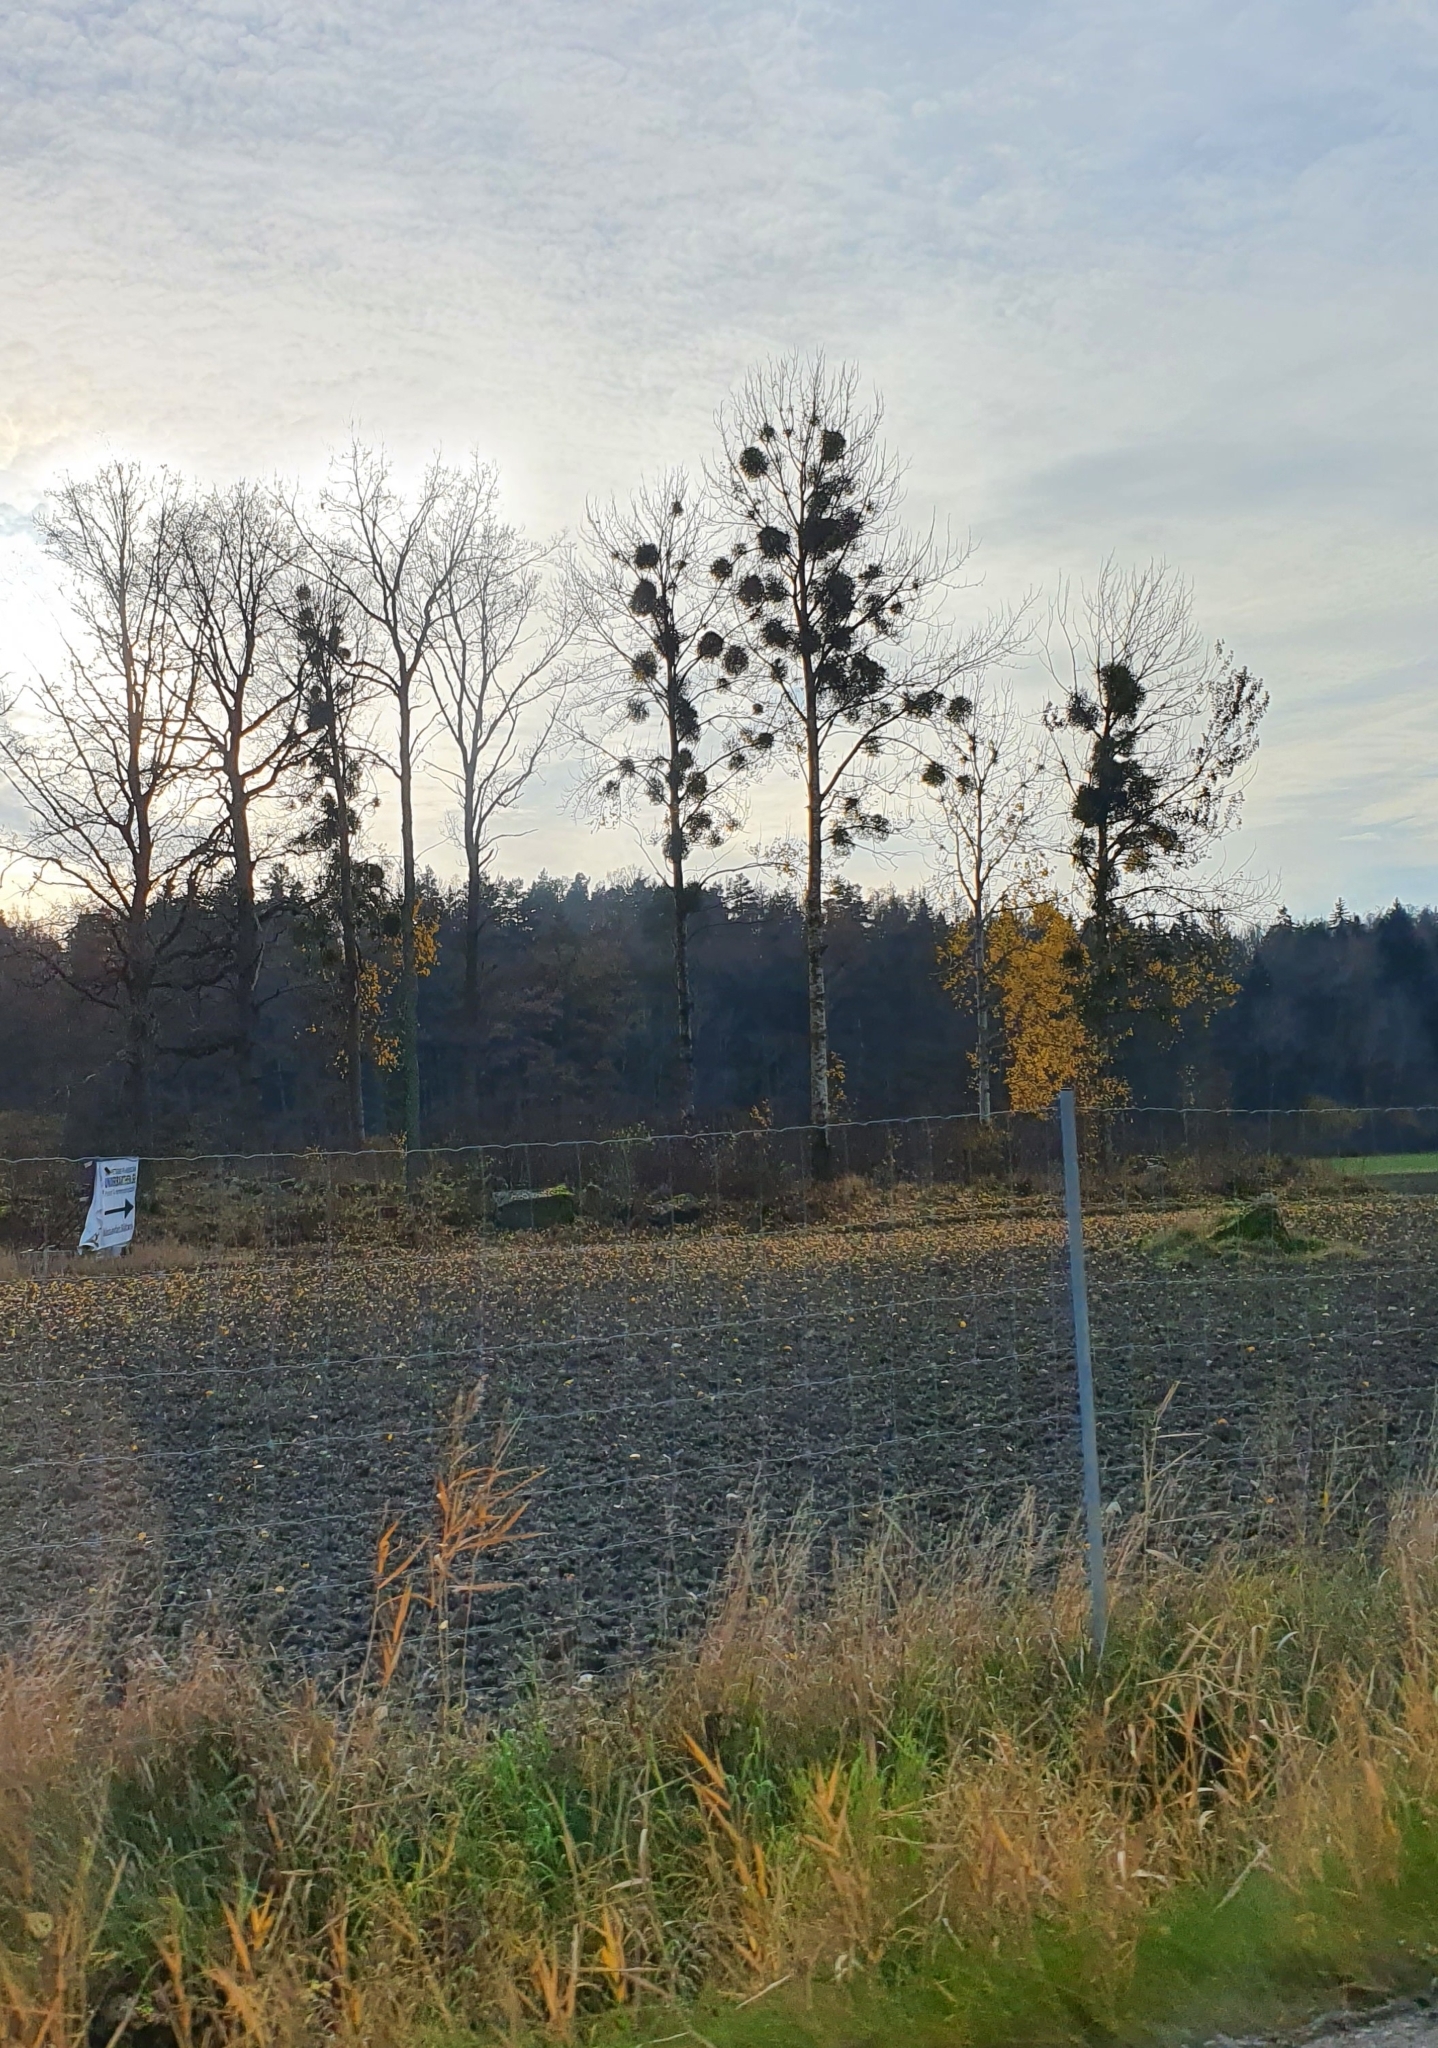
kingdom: Plantae
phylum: Tracheophyta
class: Magnoliopsida
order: Santalales
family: Viscaceae
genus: Viscum
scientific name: Viscum album
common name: Mistletoe
